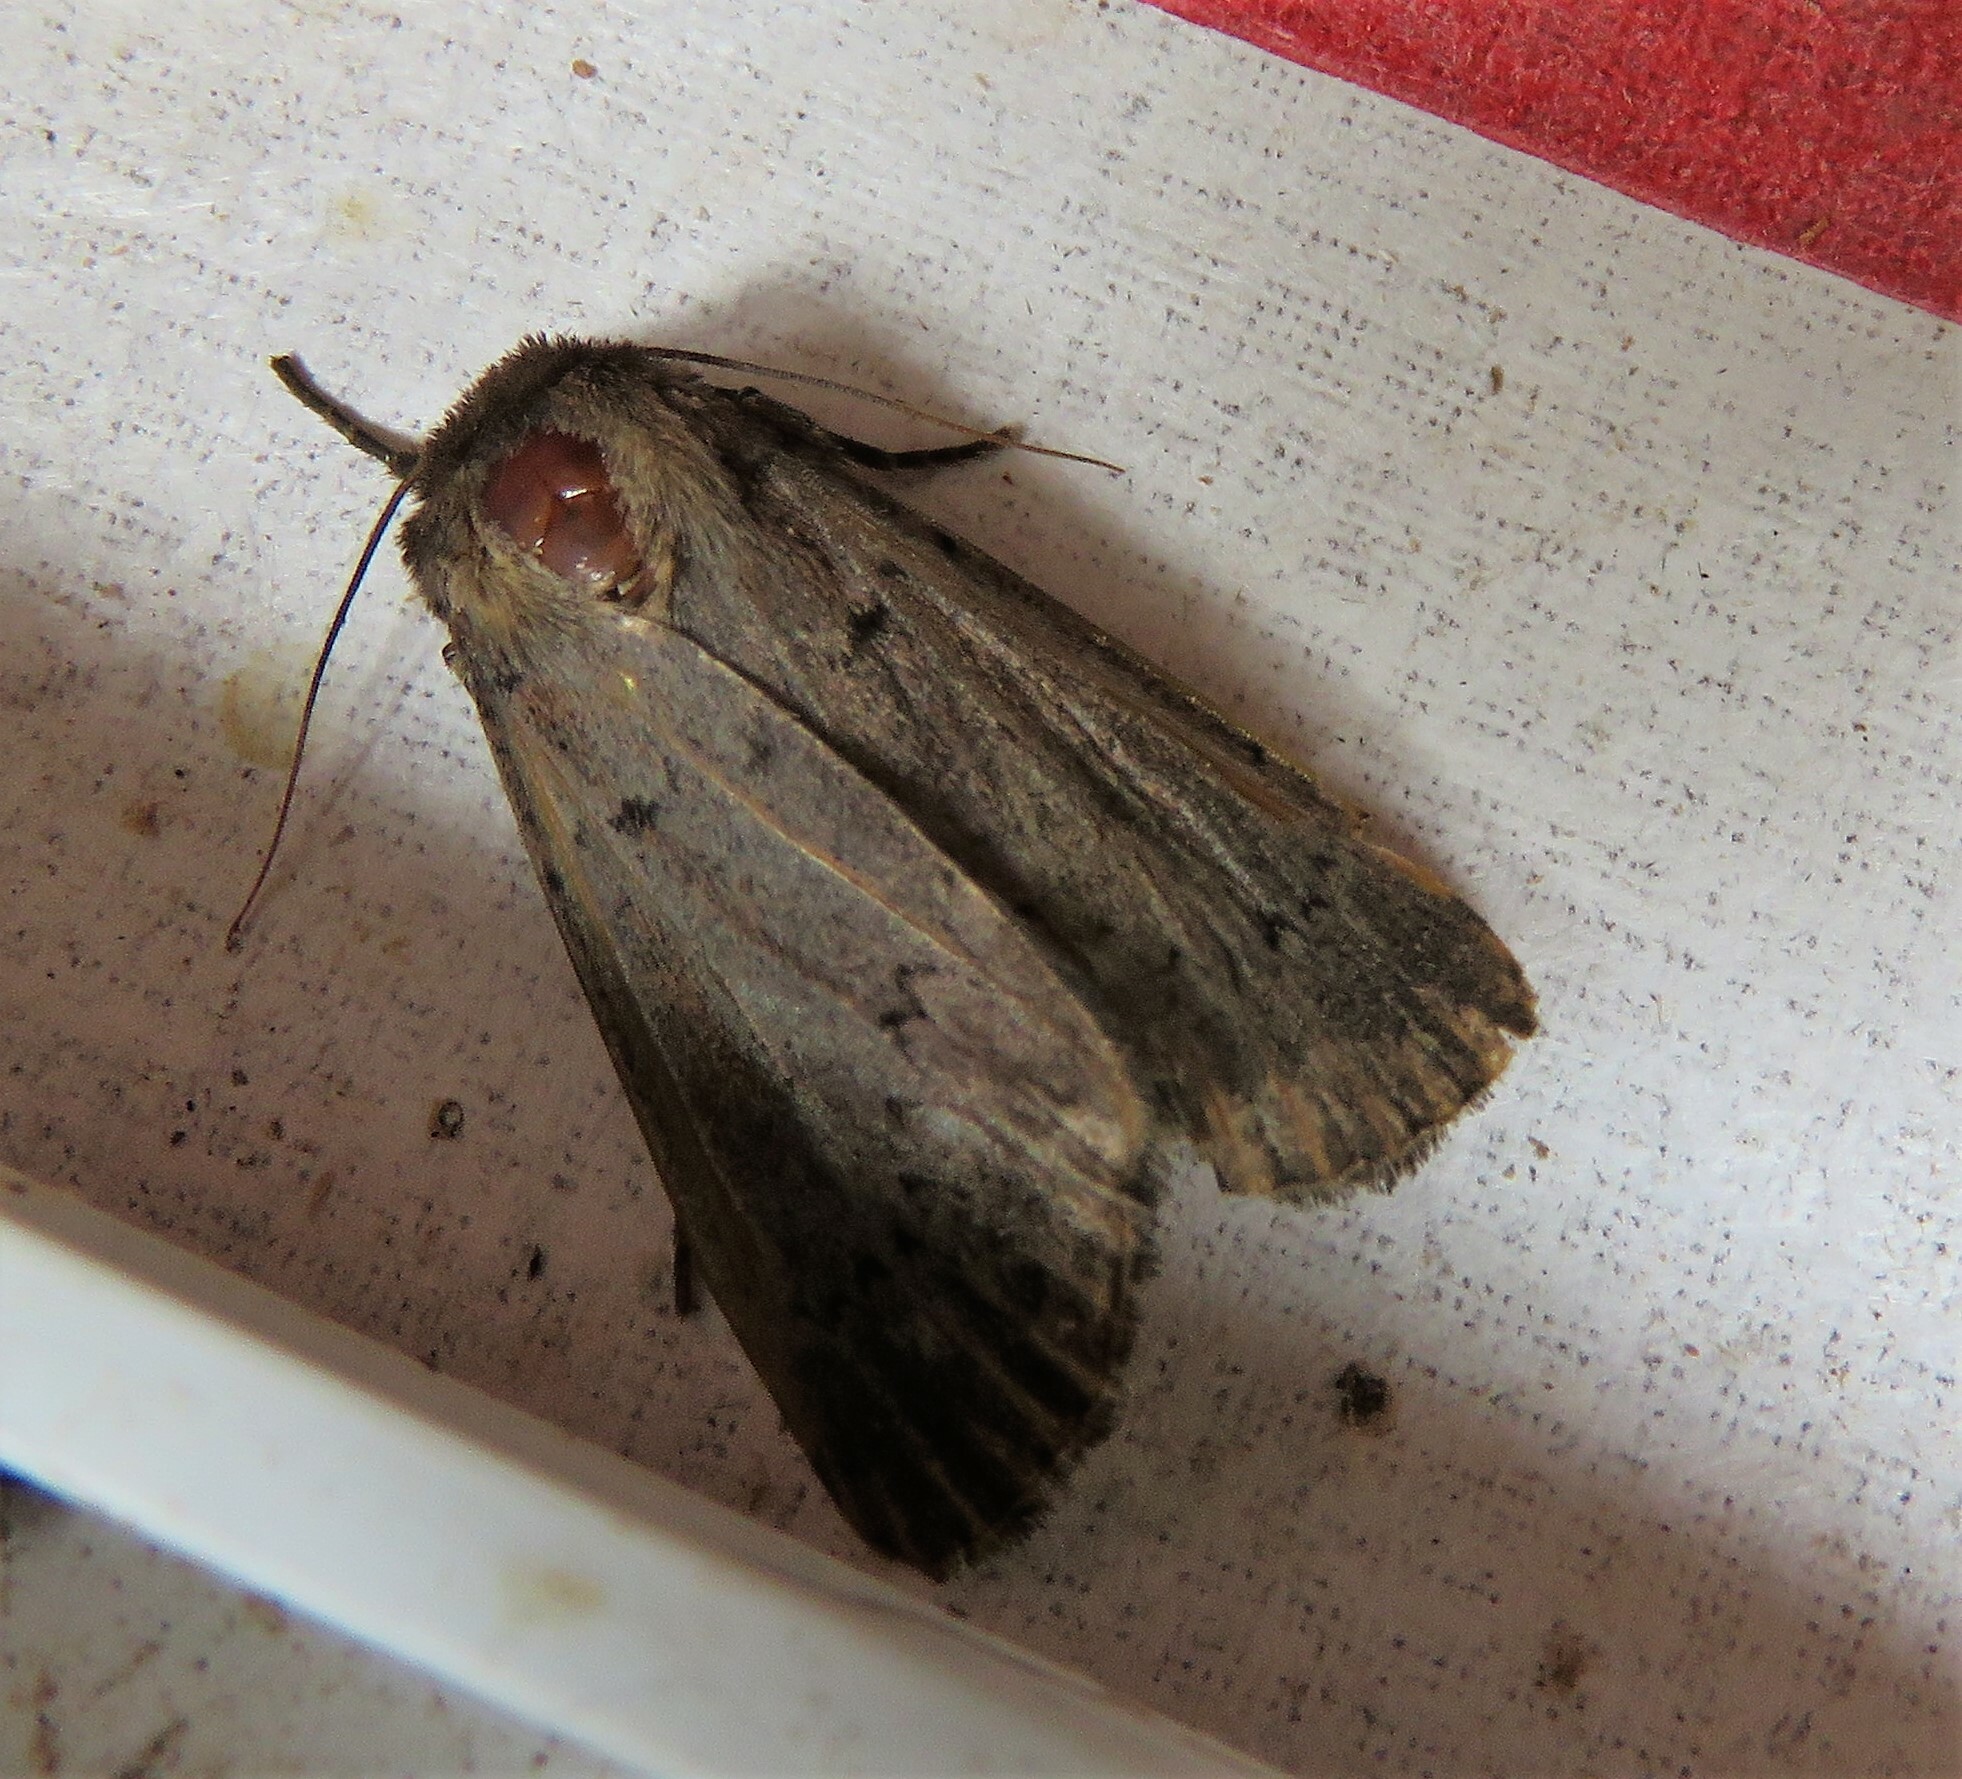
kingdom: Animalia
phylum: Arthropoda
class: Insecta
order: Lepidoptera
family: Noctuidae
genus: Graphiphora
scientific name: Graphiphora augur
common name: Double dart
